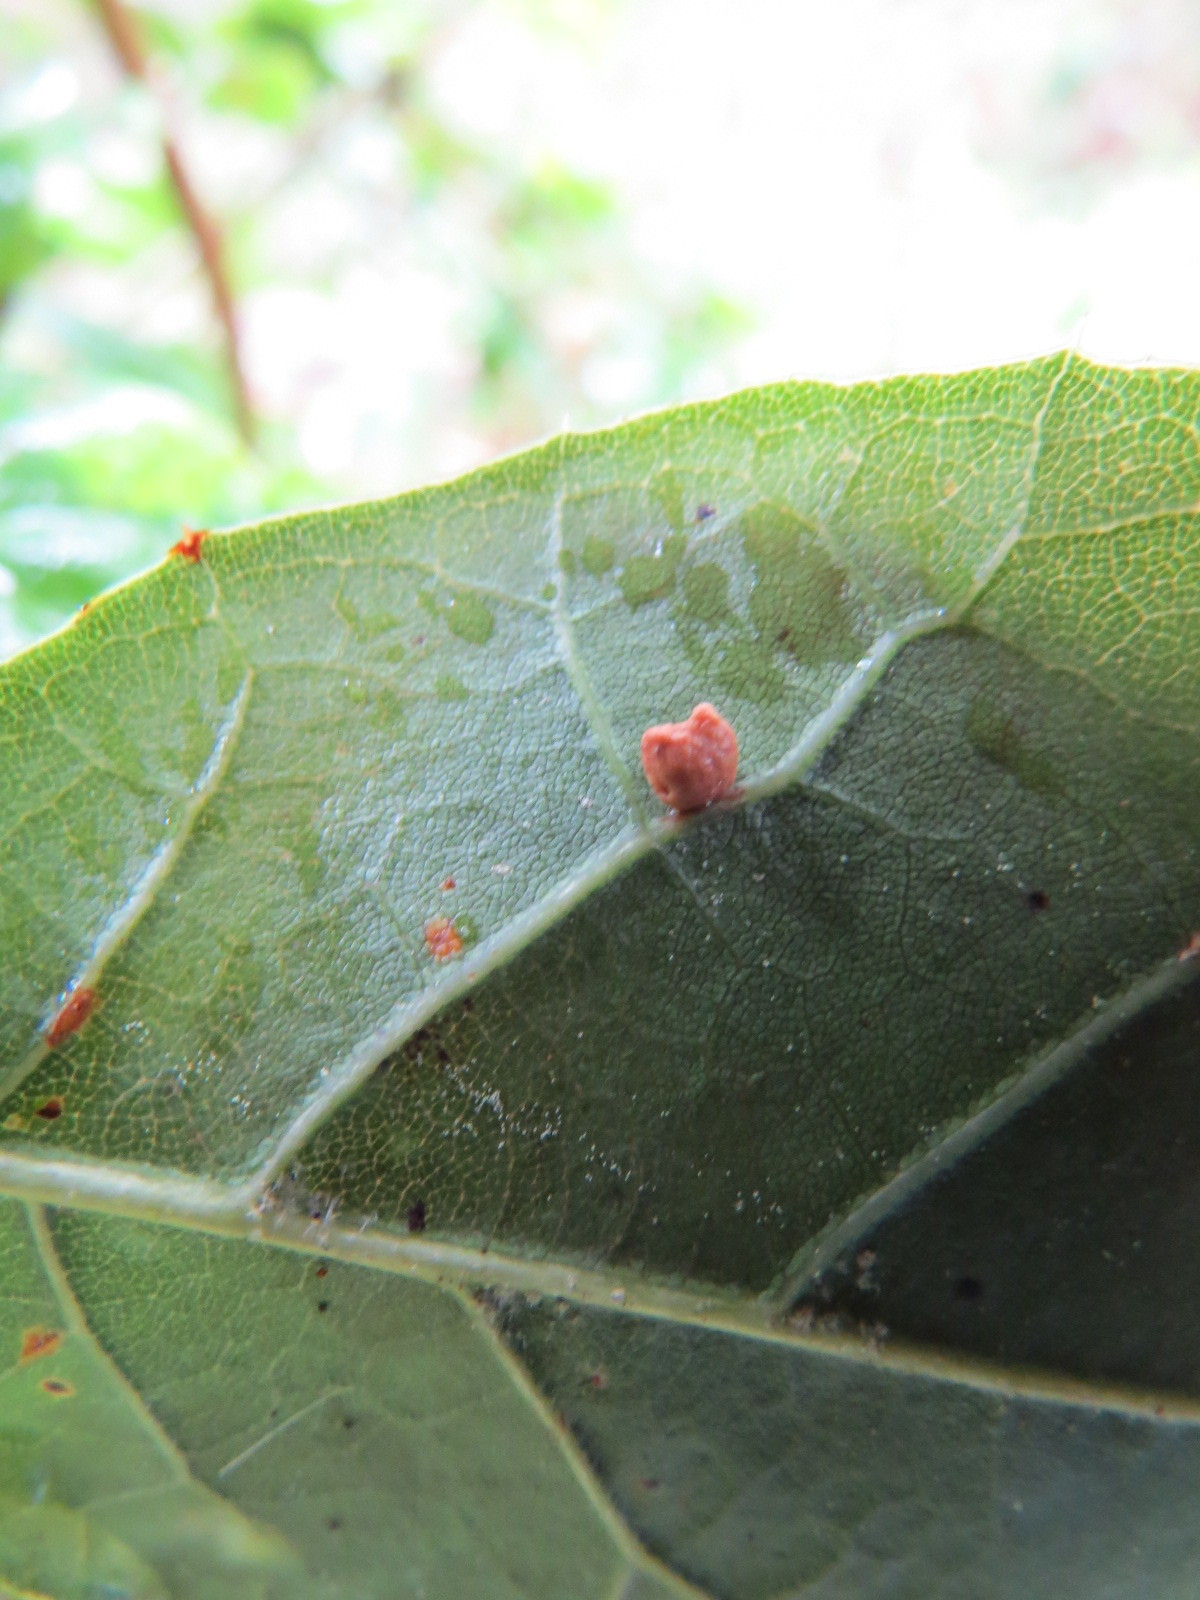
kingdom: Animalia
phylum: Arthropoda
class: Insecta
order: Hymenoptera
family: Cynipidae
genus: Dryocosmus
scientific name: Dryocosmus
